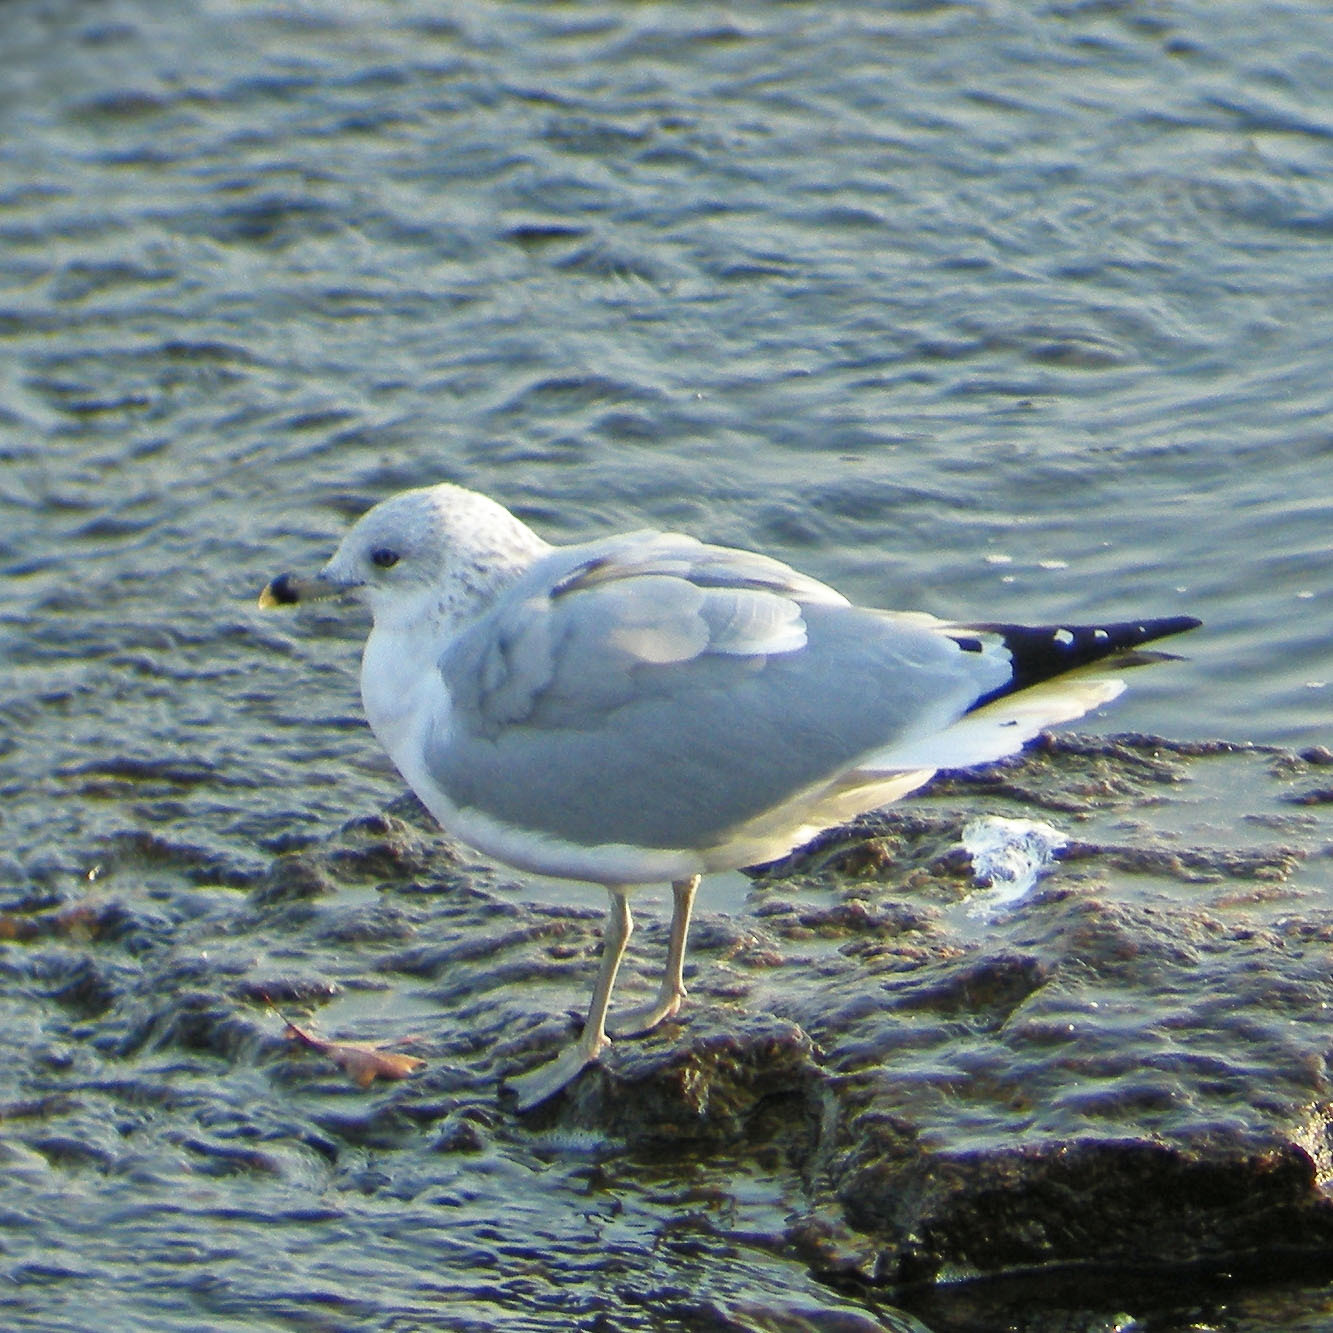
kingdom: Animalia
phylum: Chordata
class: Aves
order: Charadriiformes
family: Laridae
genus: Larus
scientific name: Larus delawarensis
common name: Ring-billed gull
